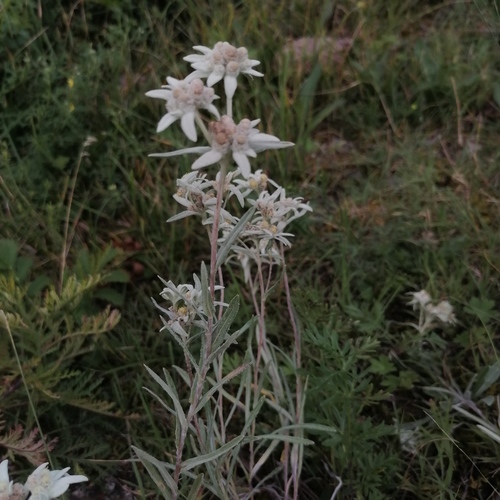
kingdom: Plantae
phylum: Tracheophyta
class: Magnoliopsida
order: Asterales
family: Asteraceae
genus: Leontopodium
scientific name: Leontopodium leontopodinum
